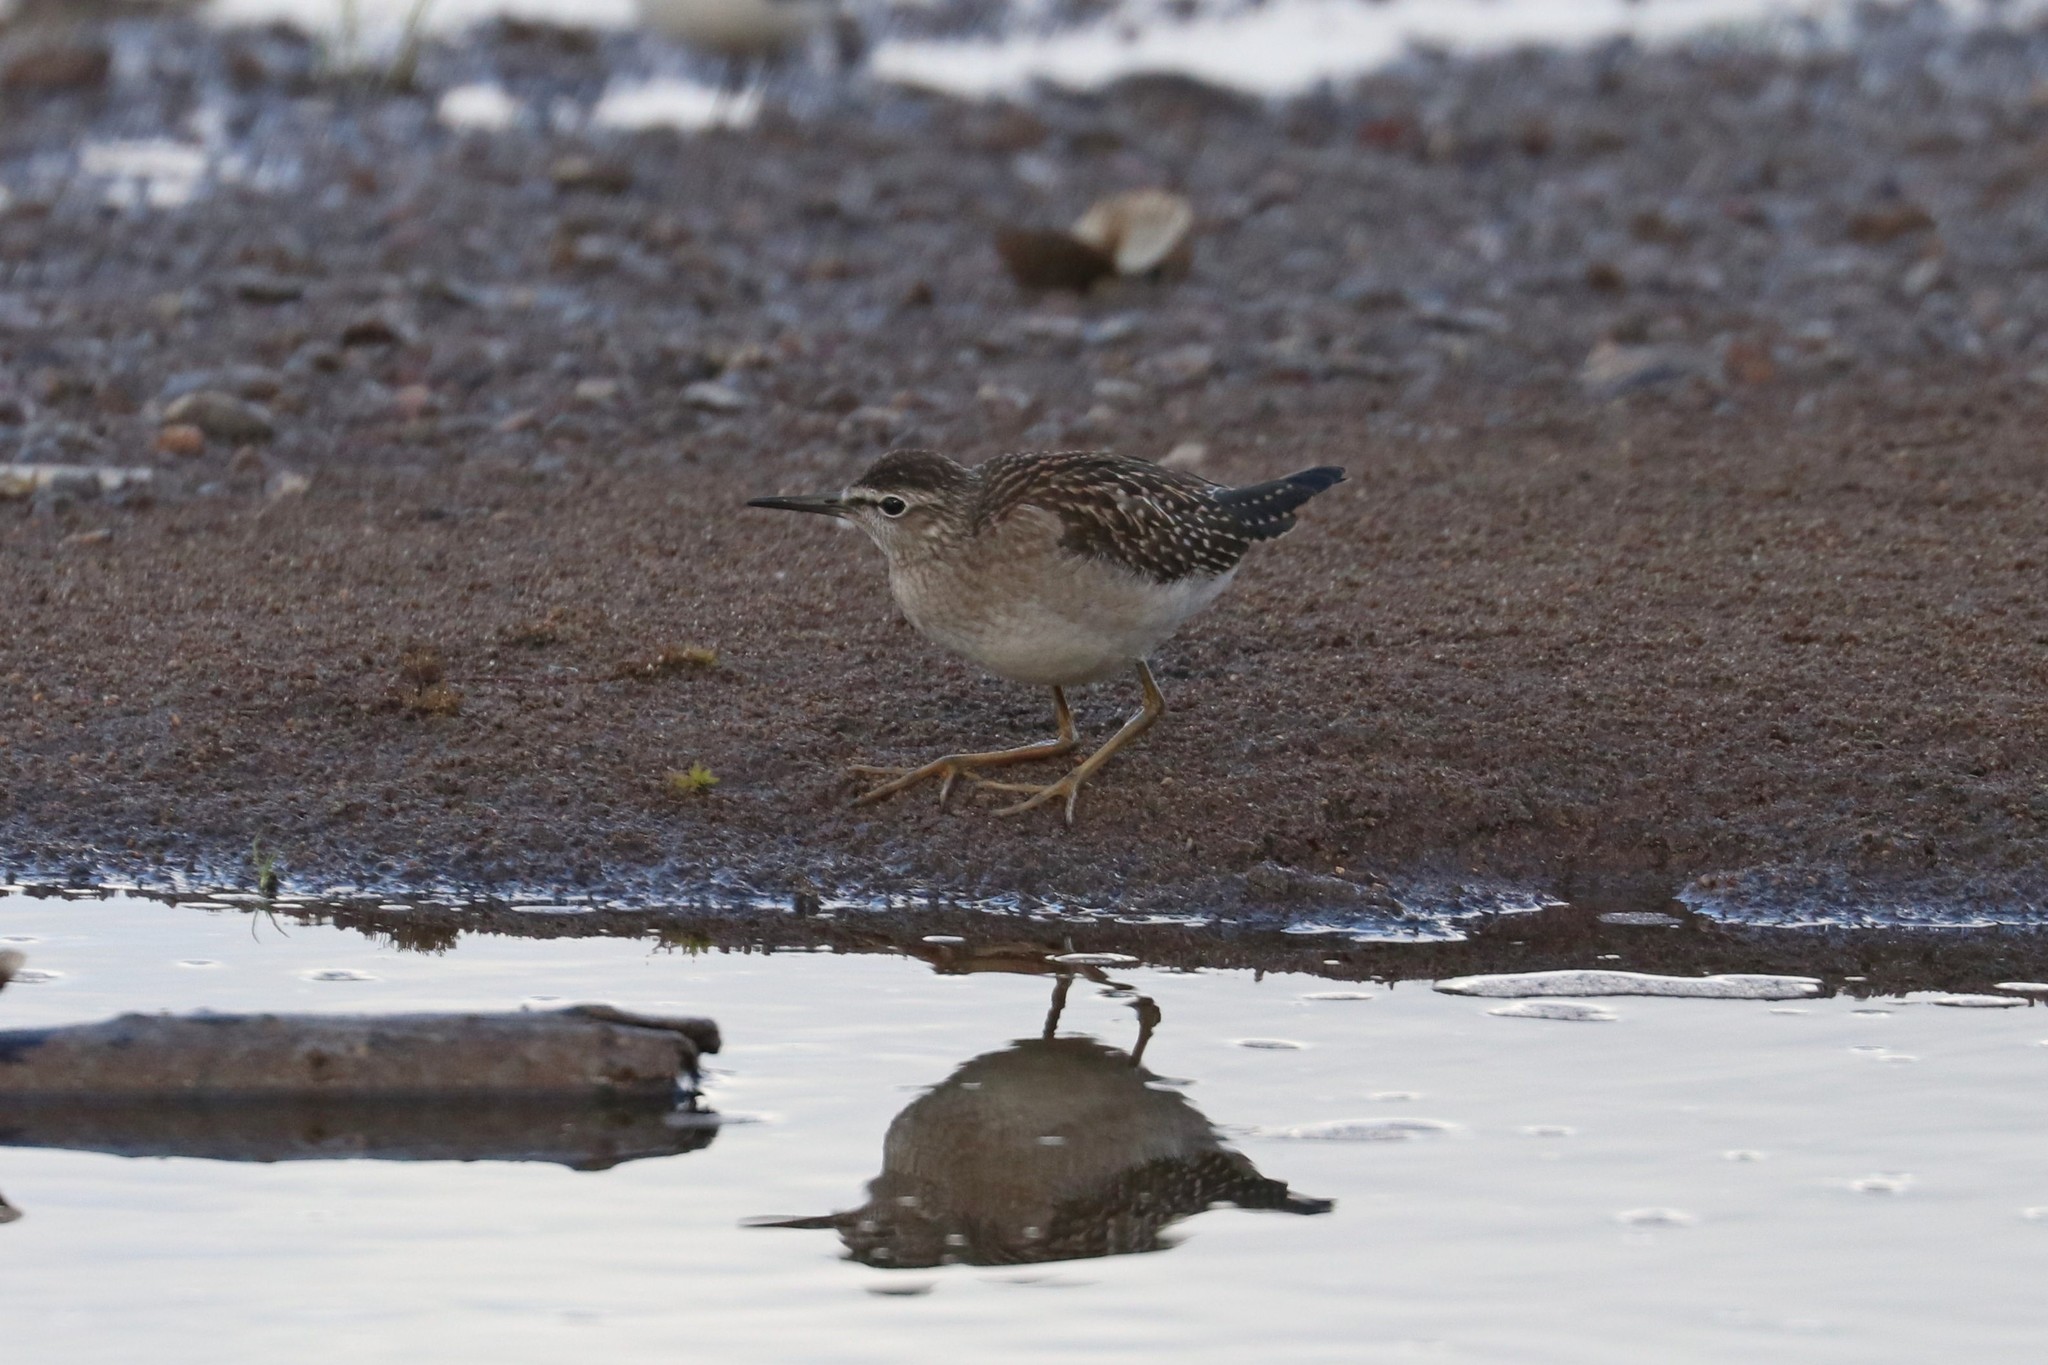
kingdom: Animalia
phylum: Chordata
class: Aves
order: Charadriiformes
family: Scolopacidae
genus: Tringa
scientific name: Tringa glareola
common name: Wood sandpiper
